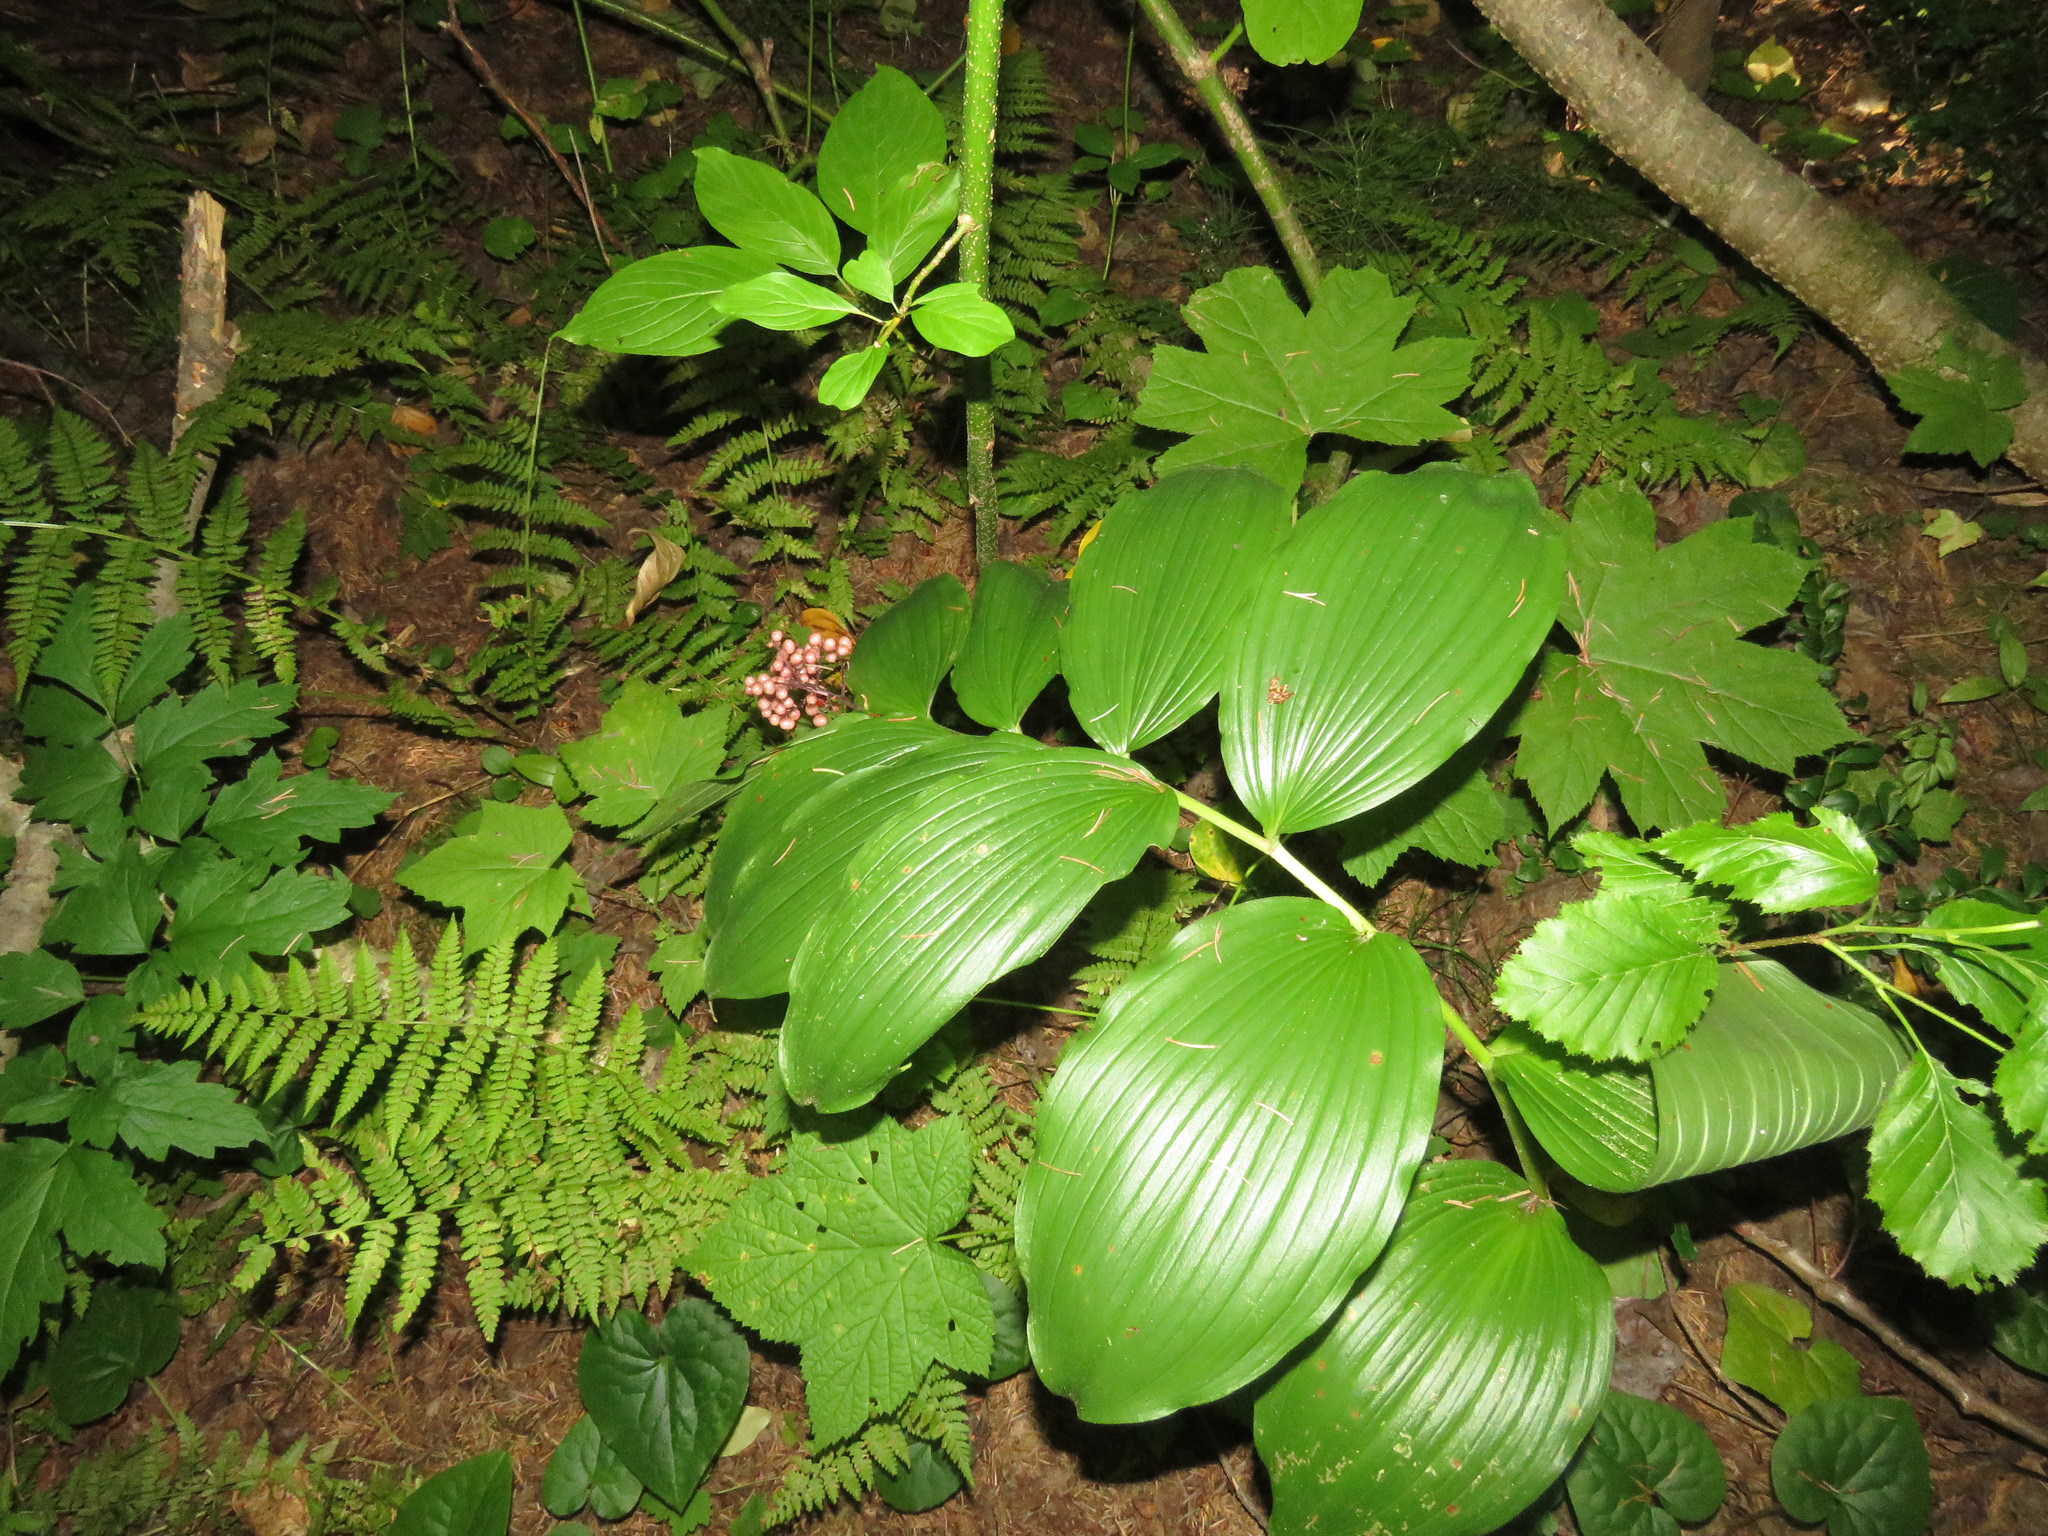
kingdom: Plantae
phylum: Tracheophyta
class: Liliopsida
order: Asparagales
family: Asparagaceae
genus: Maianthemum
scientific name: Maianthemum racemosum
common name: False spikenard
